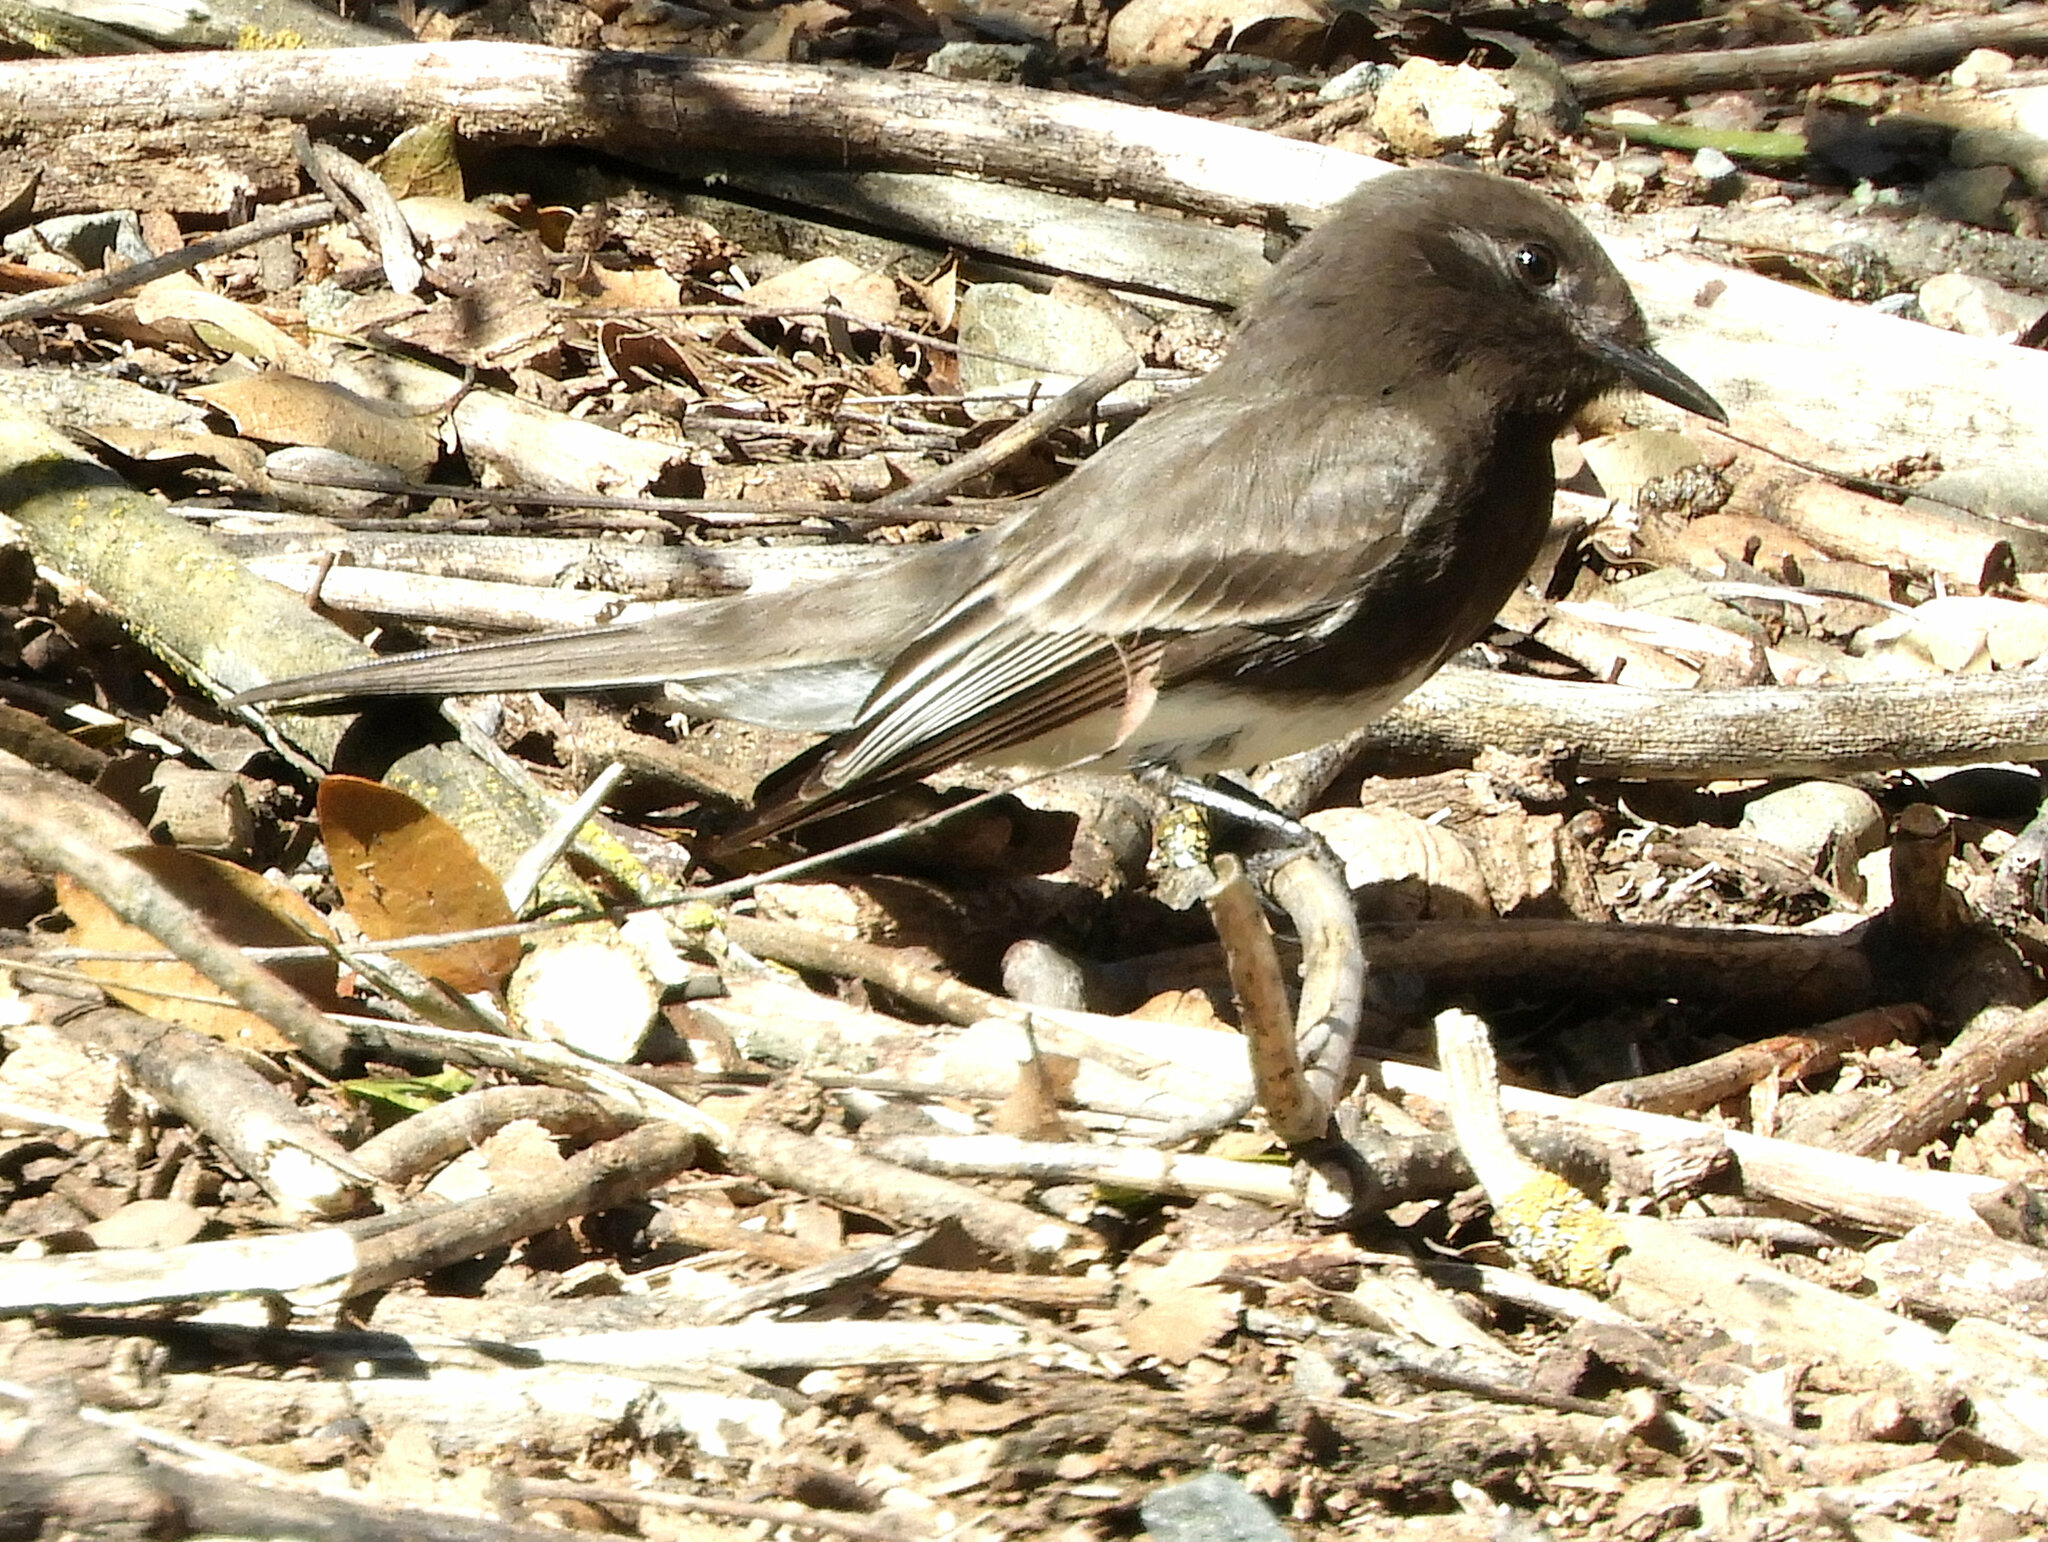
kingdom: Animalia
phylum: Chordata
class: Aves
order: Passeriformes
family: Tyrannidae
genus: Sayornis
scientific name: Sayornis nigricans
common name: Black phoebe
